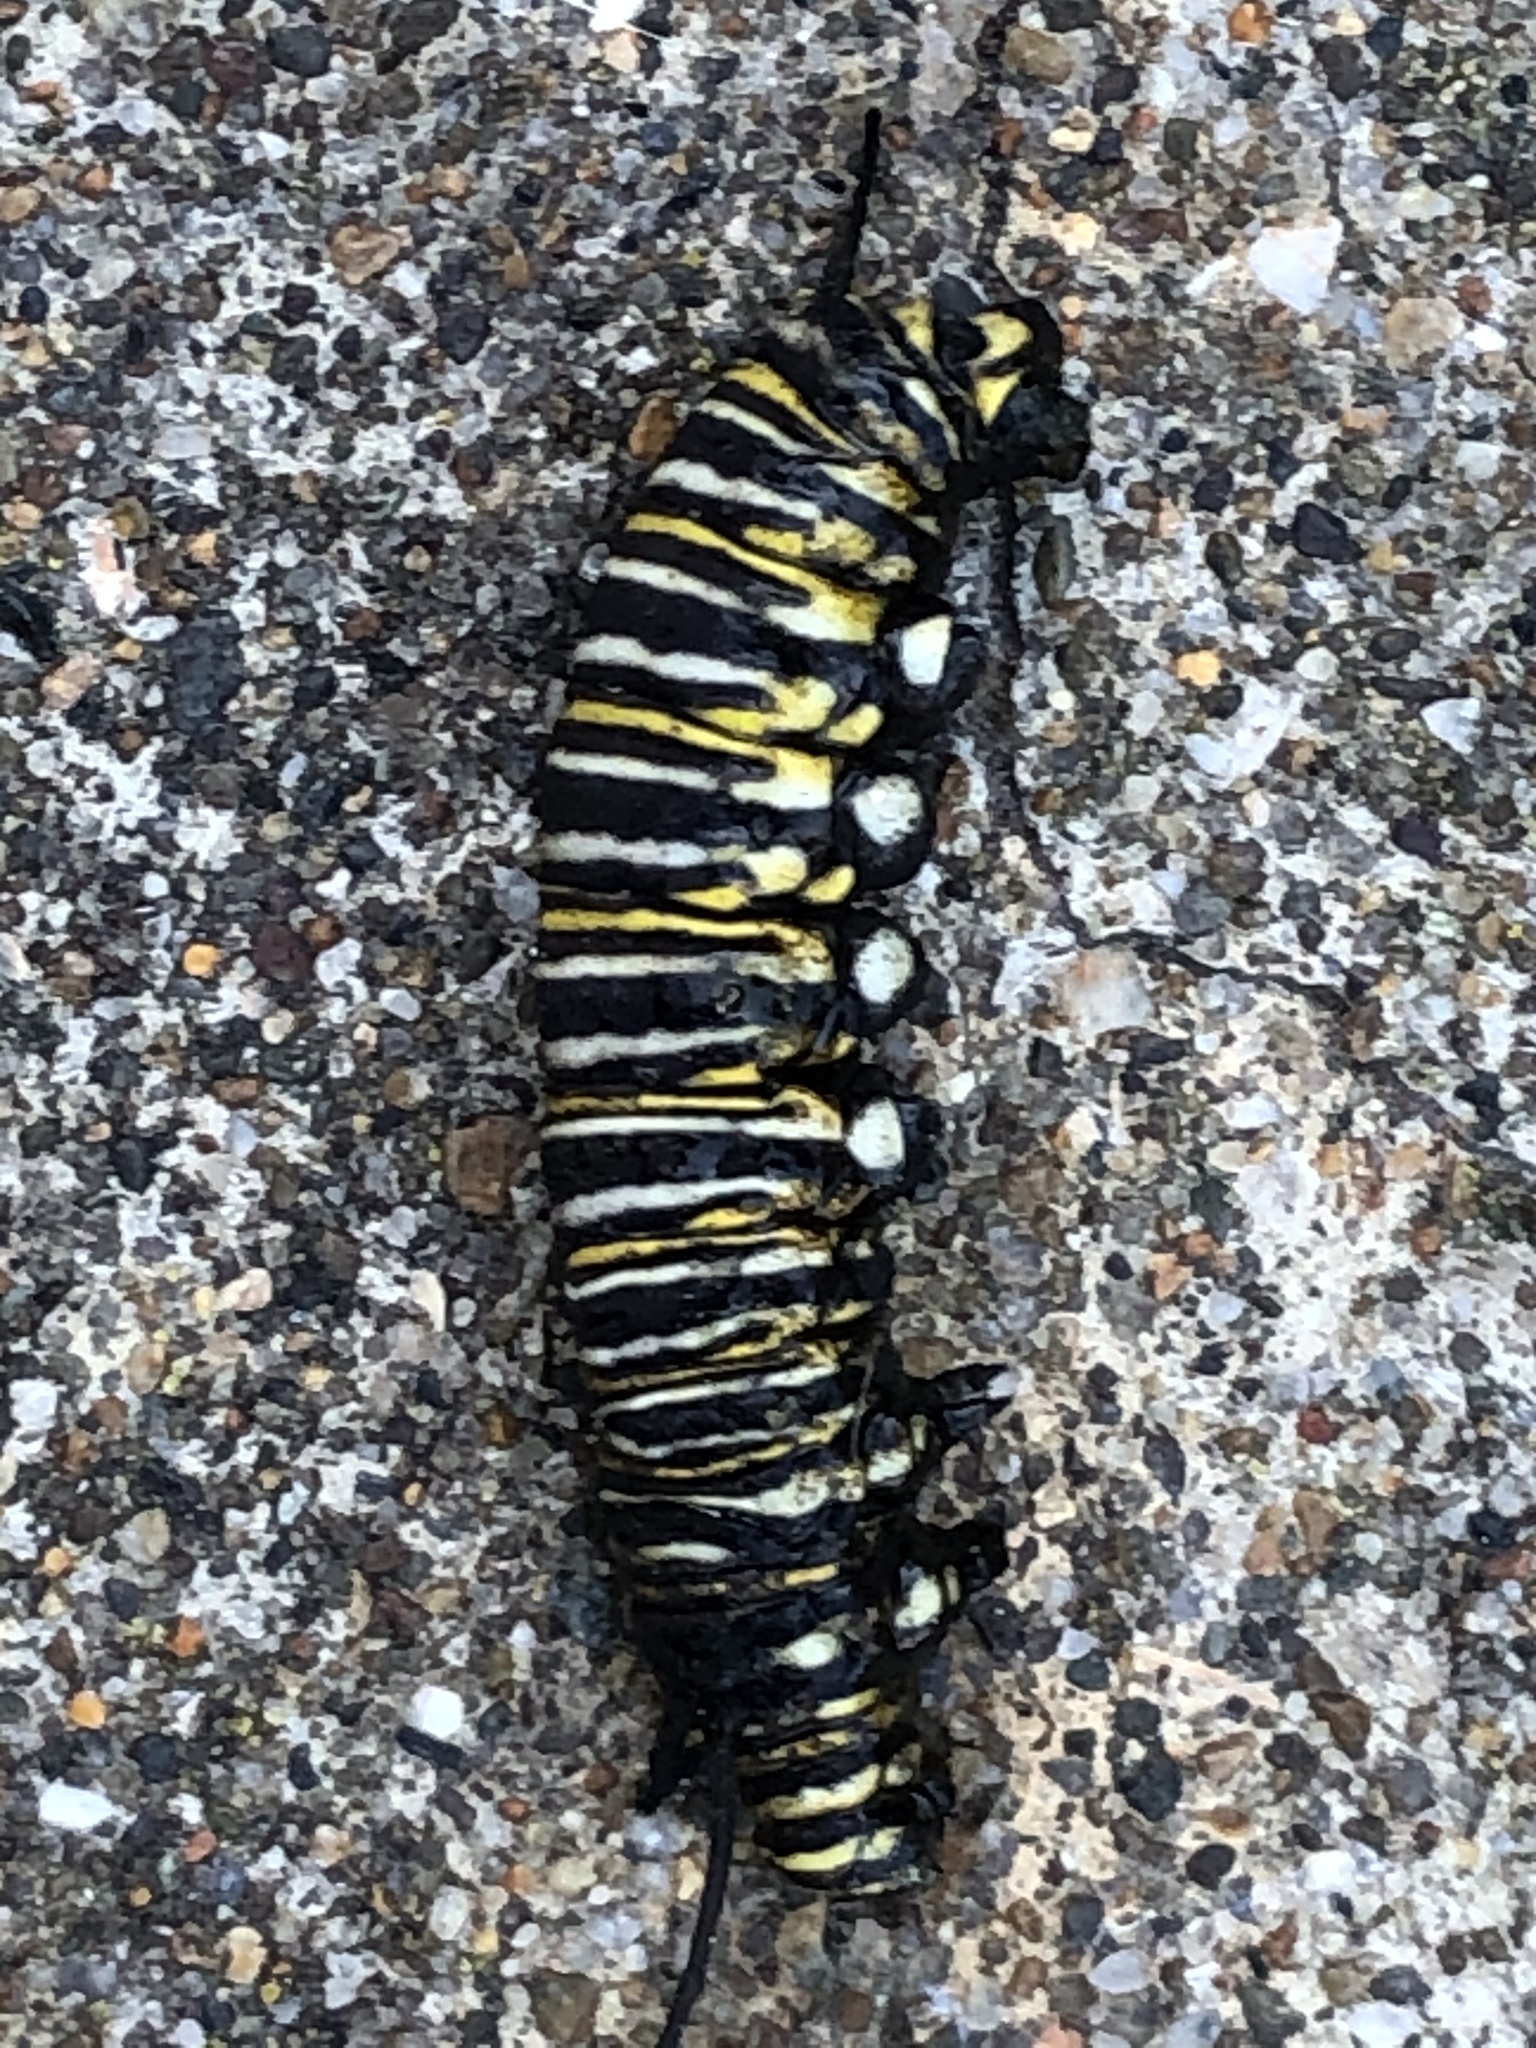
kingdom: Animalia
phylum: Arthropoda
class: Insecta
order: Lepidoptera
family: Nymphalidae
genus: Danaus
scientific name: Danaus plexippus
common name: Monarch
